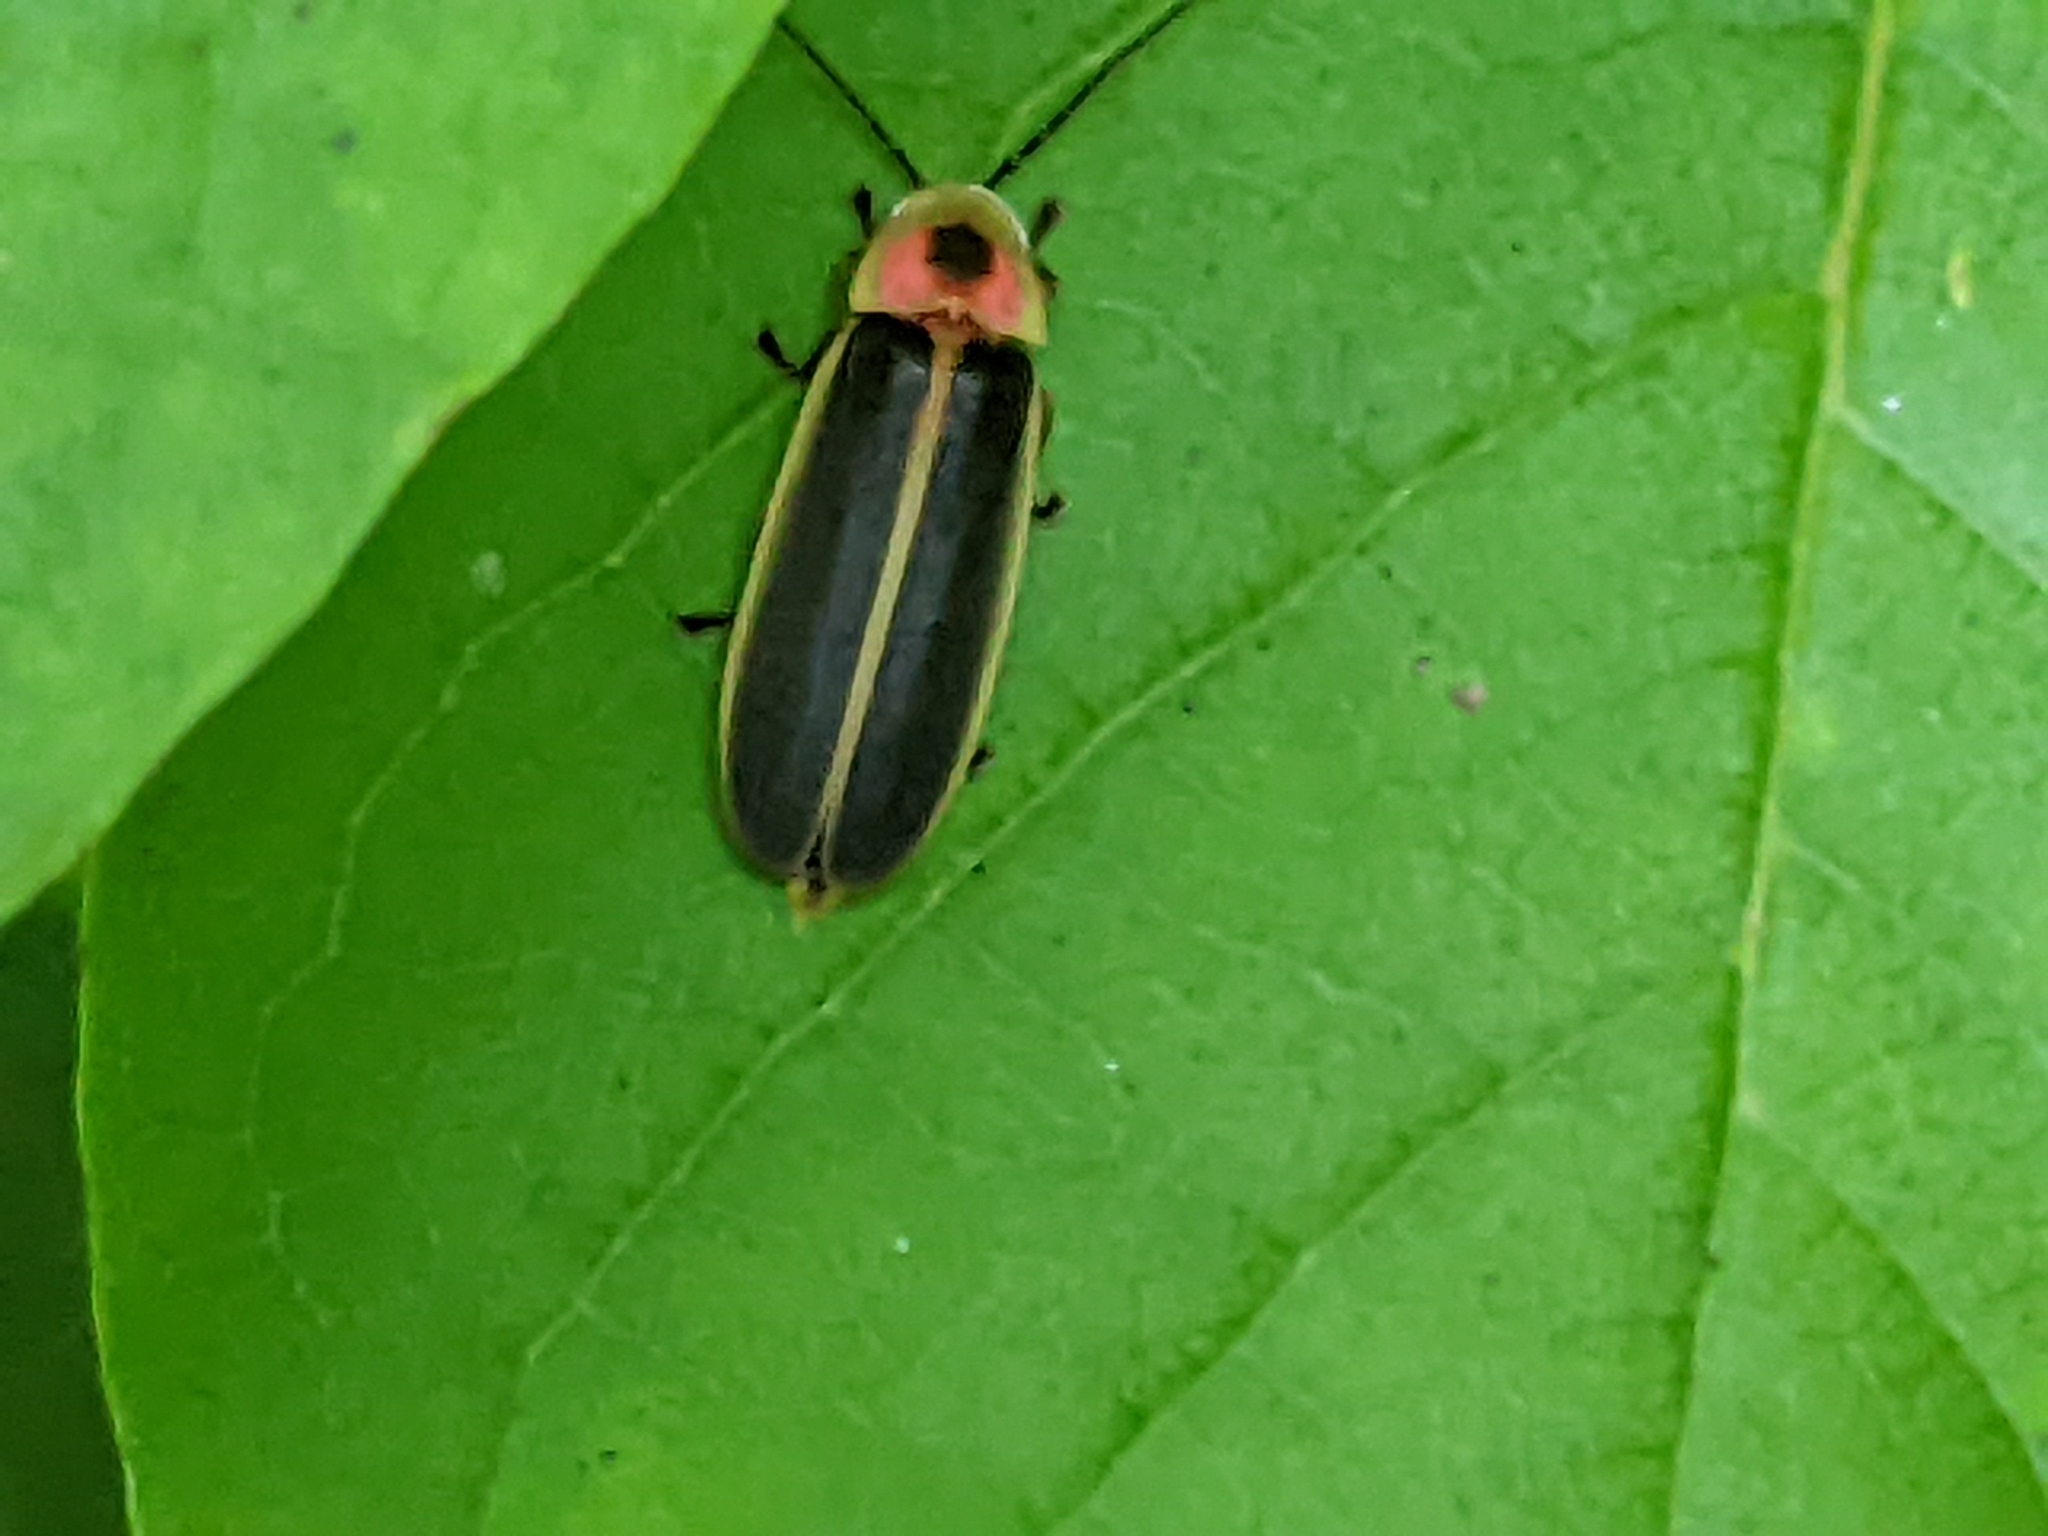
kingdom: Animalia
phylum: Arthropoda
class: Insecta
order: Coleoptera
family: Lampyridae
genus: Photinus
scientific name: Photinus pyralis
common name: Big dipper firefly
